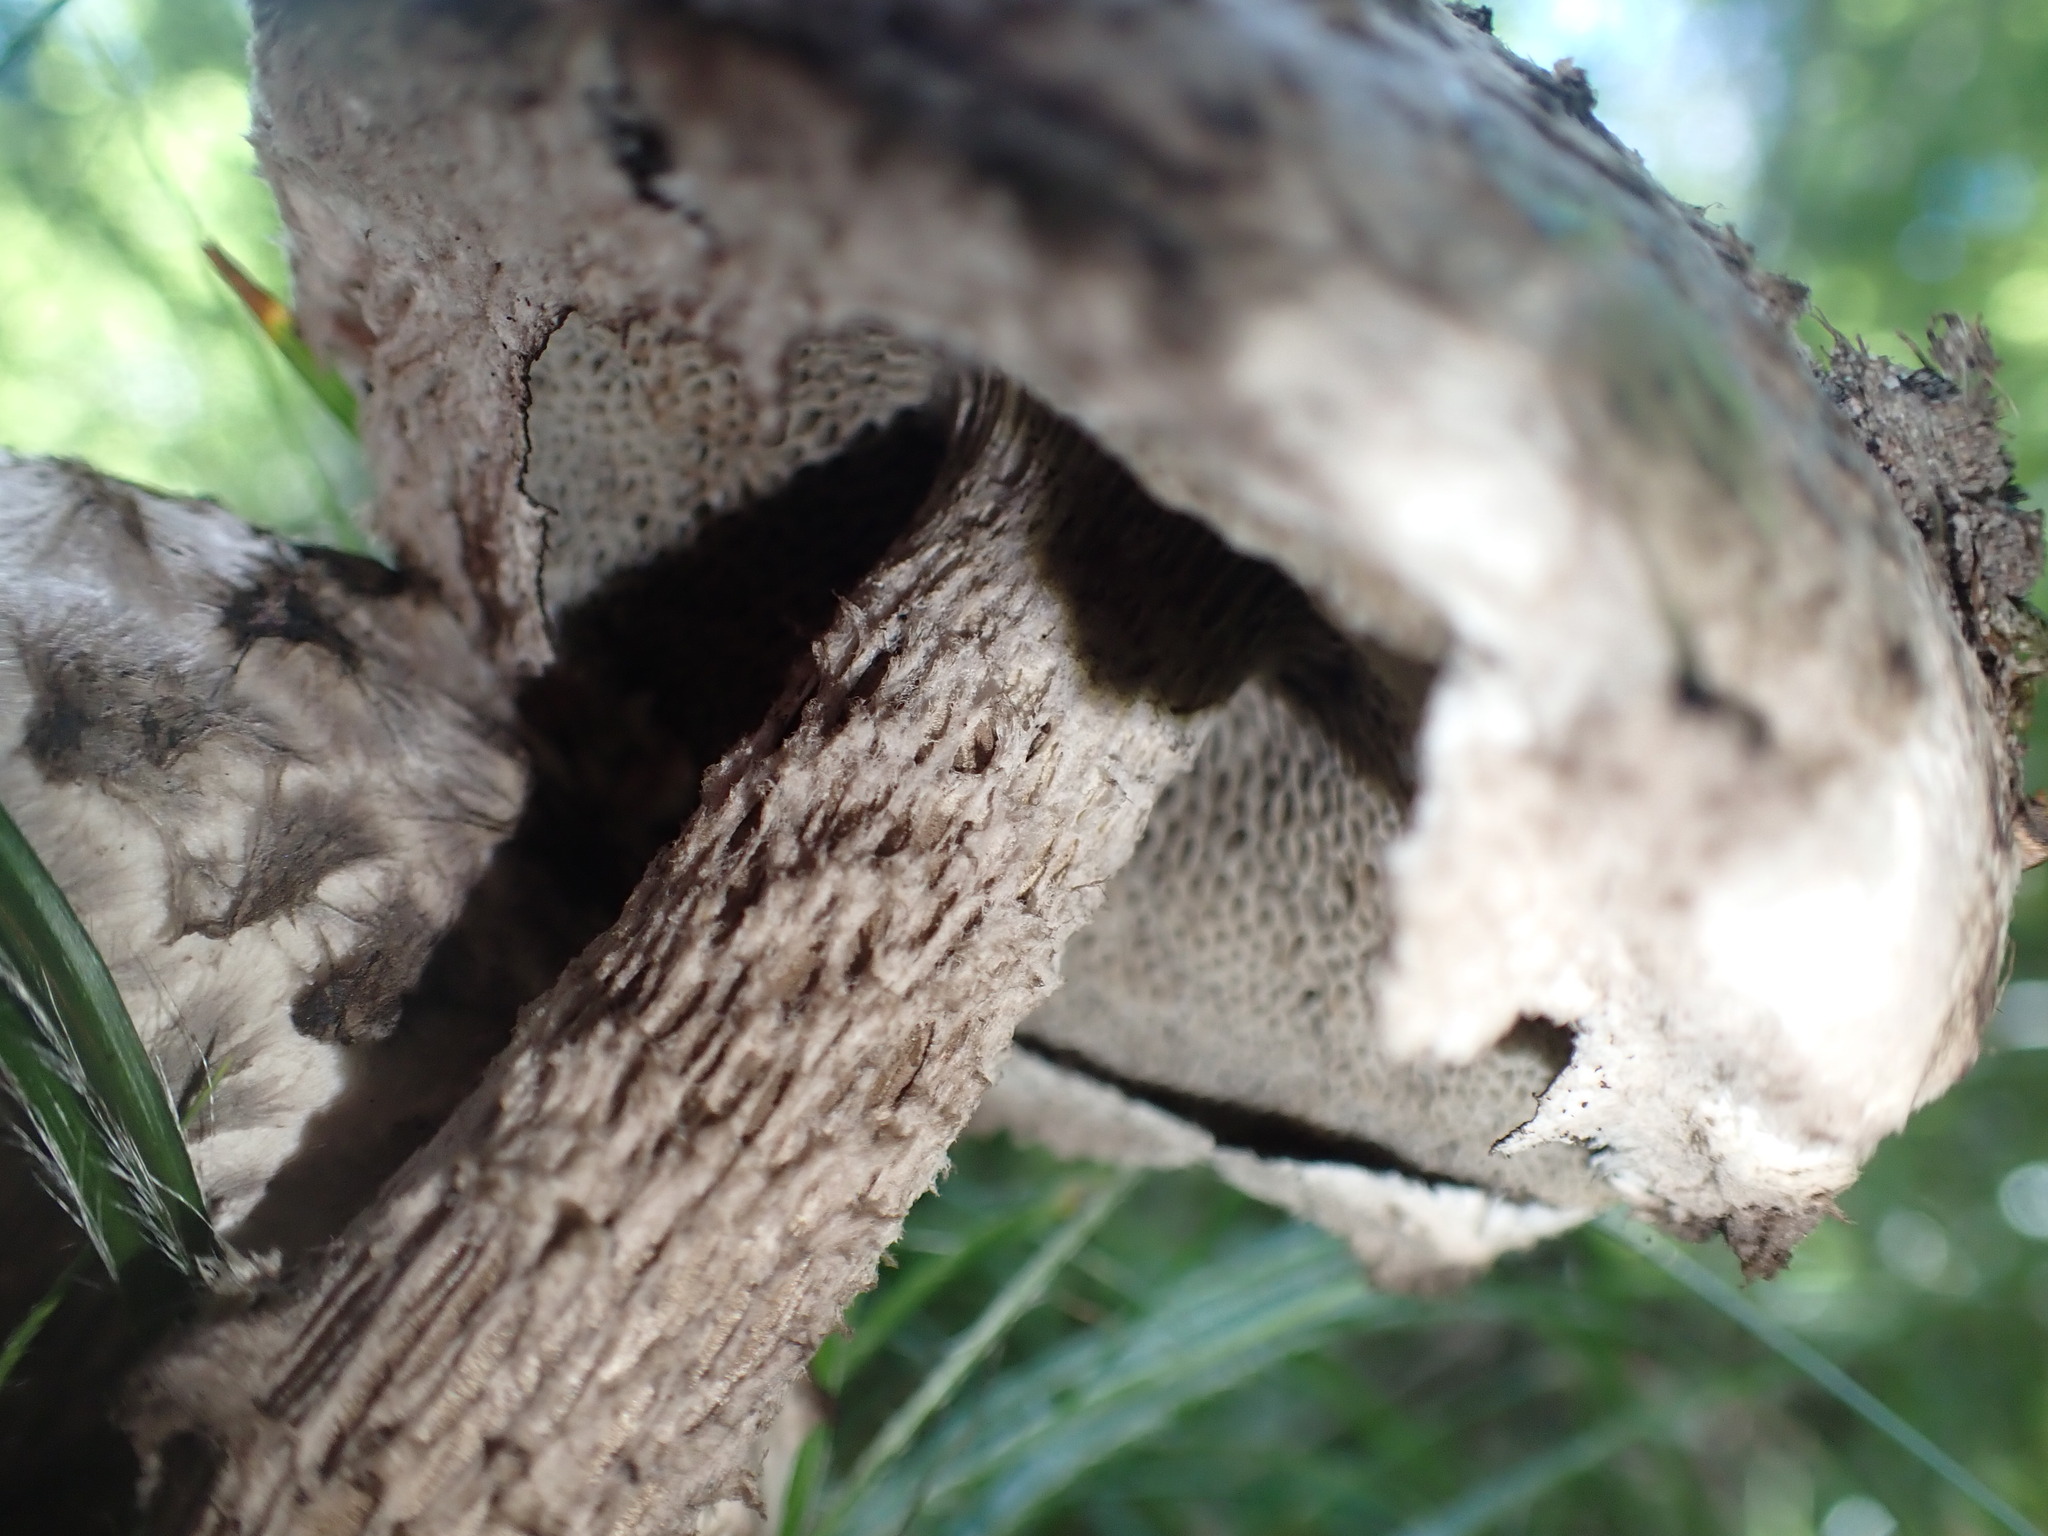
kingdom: Fungi
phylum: Basidiomycota
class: Agaricomycetes
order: Boletales
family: Boletaceae
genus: Strobilomyces
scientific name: Strobilomyces strobilaceus
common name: Old man of the woods
